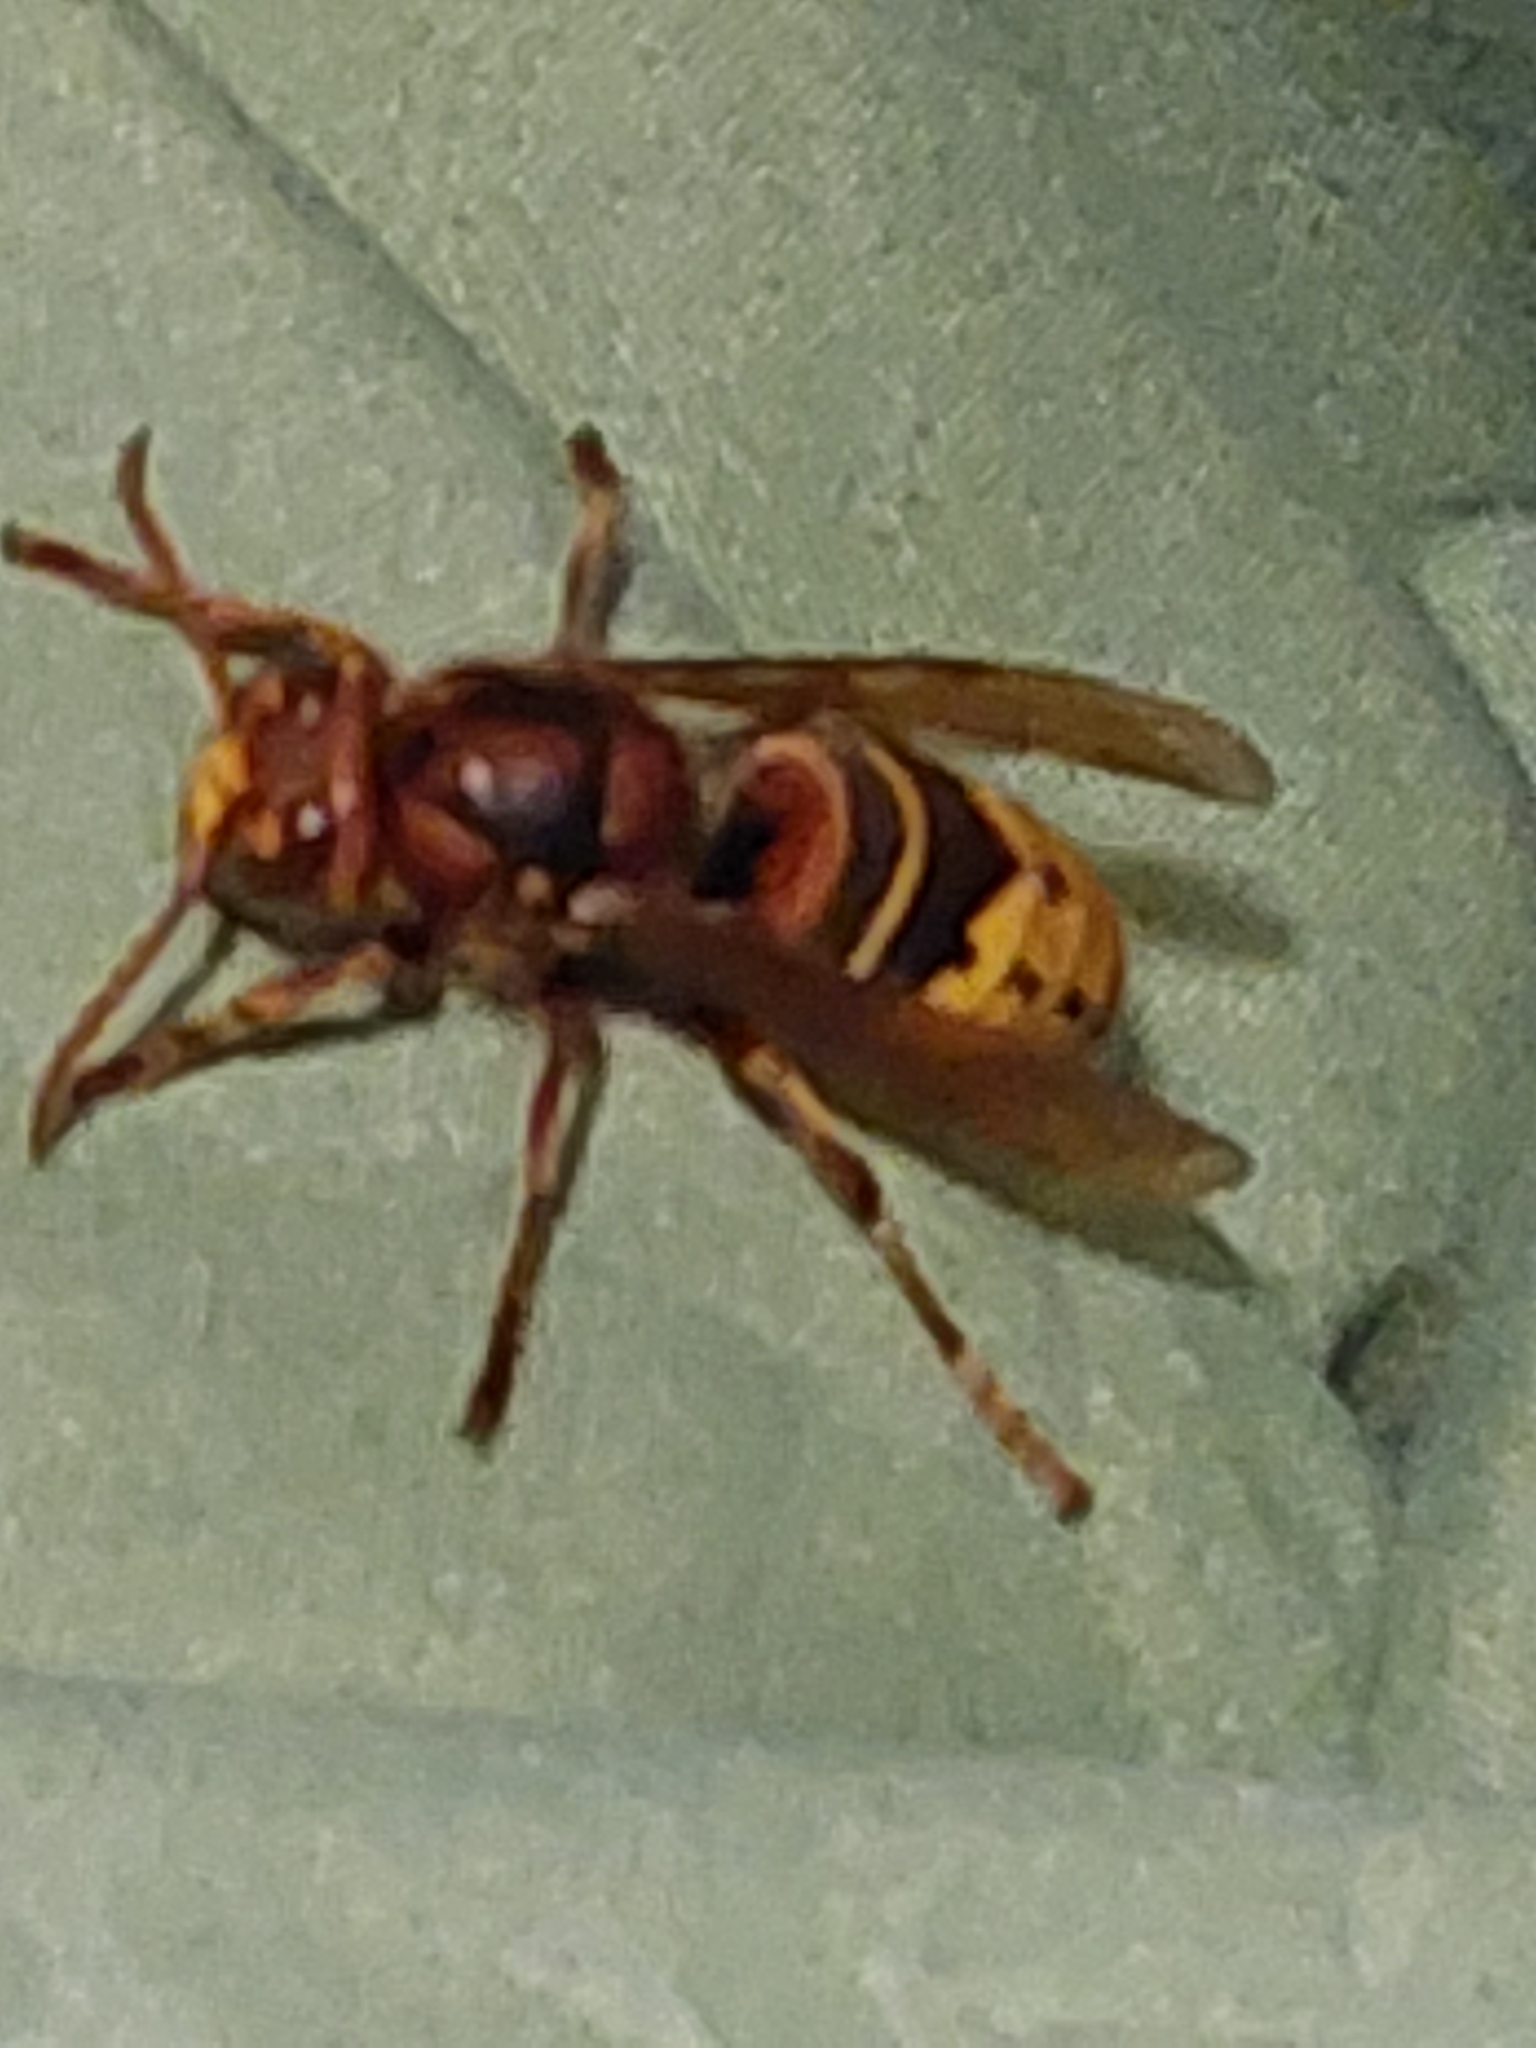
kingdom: Animalia
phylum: Arthropoda
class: Insecta
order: Hymenoptera
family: Vespidae
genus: Vespa
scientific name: Vespa crabro
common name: Hornet
